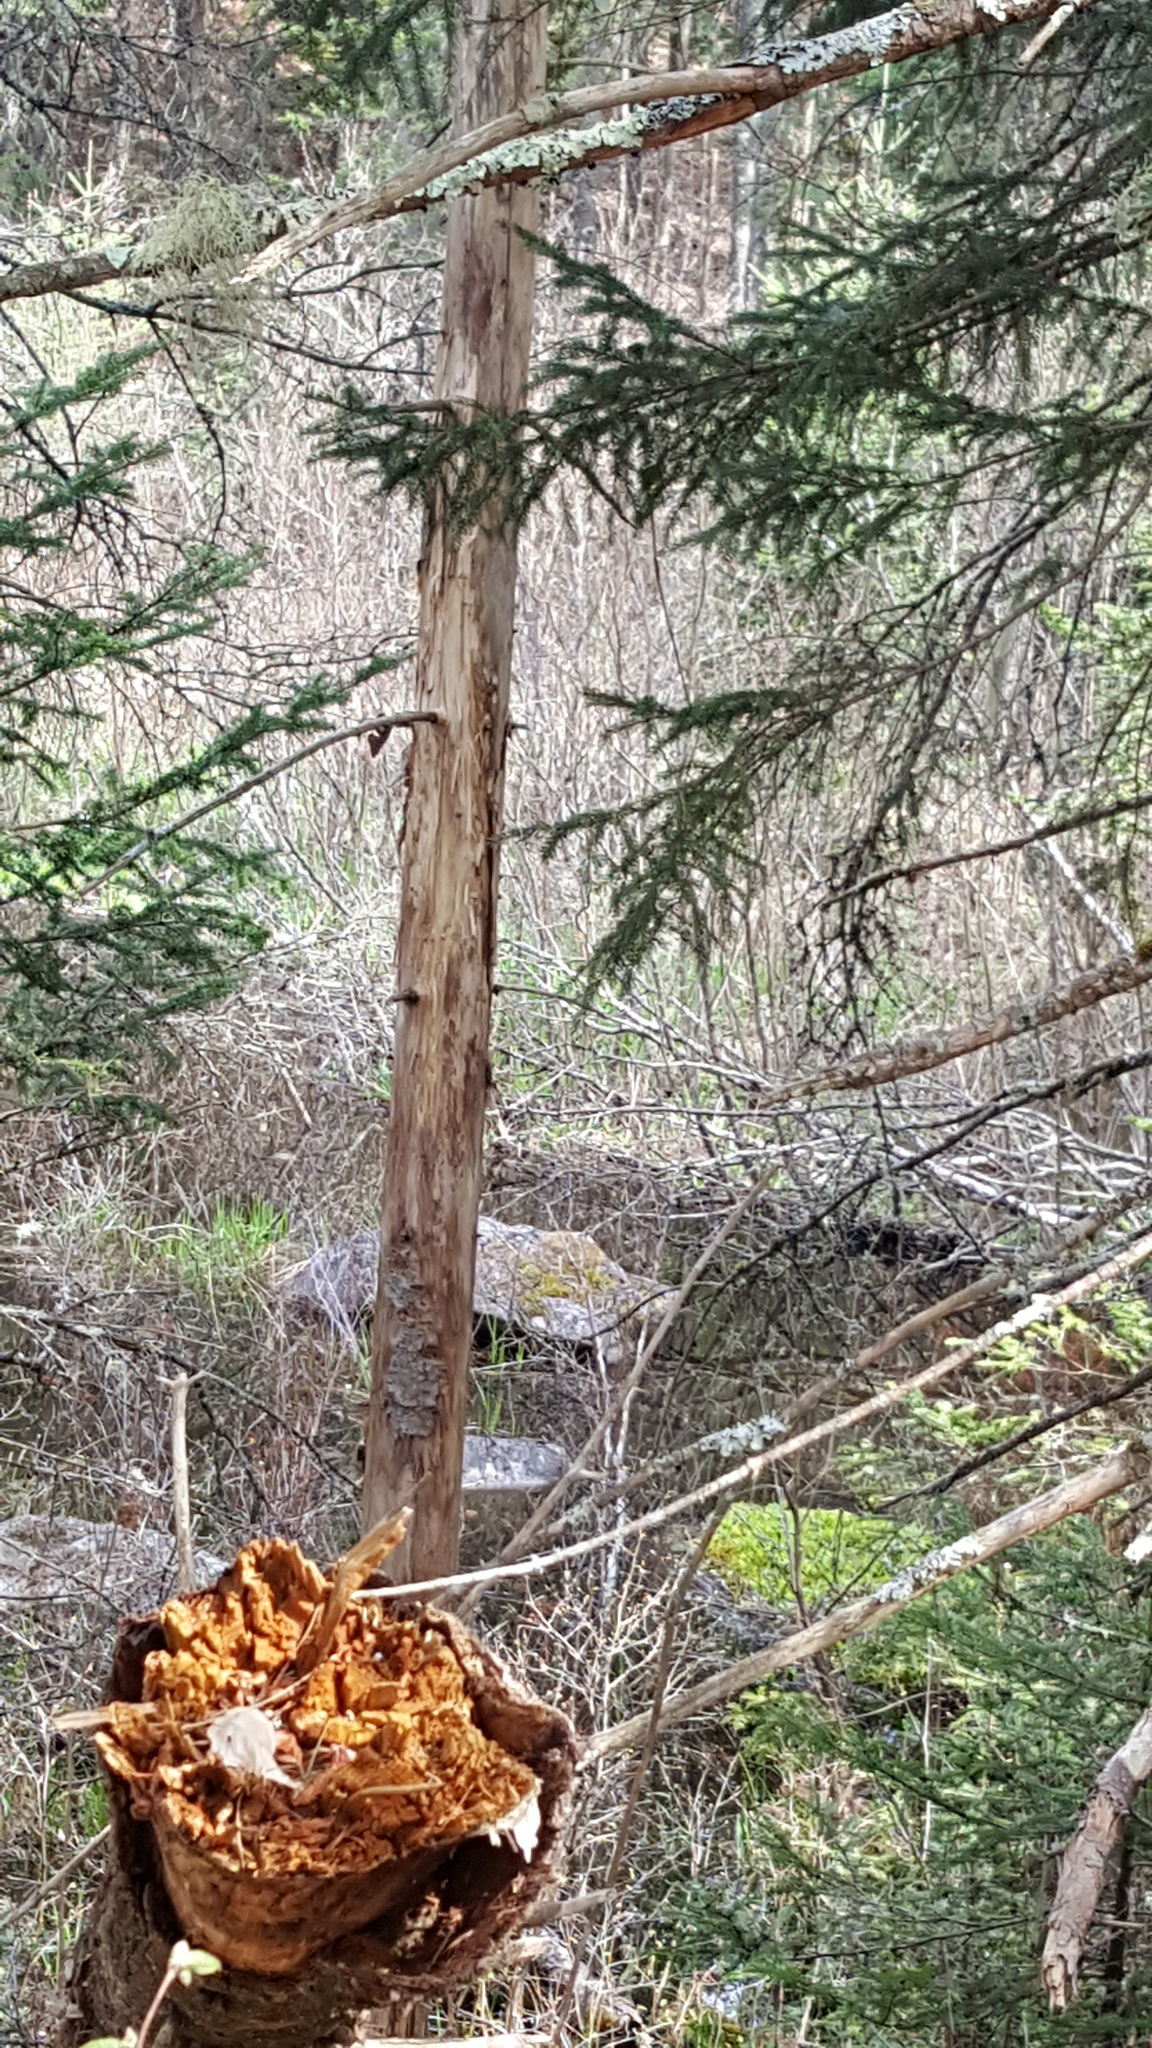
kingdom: Animalia
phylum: Chordata
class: Mammalia
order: Rodentia
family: Castoridae
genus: Castor
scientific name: Castor canadensis
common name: American beaver
